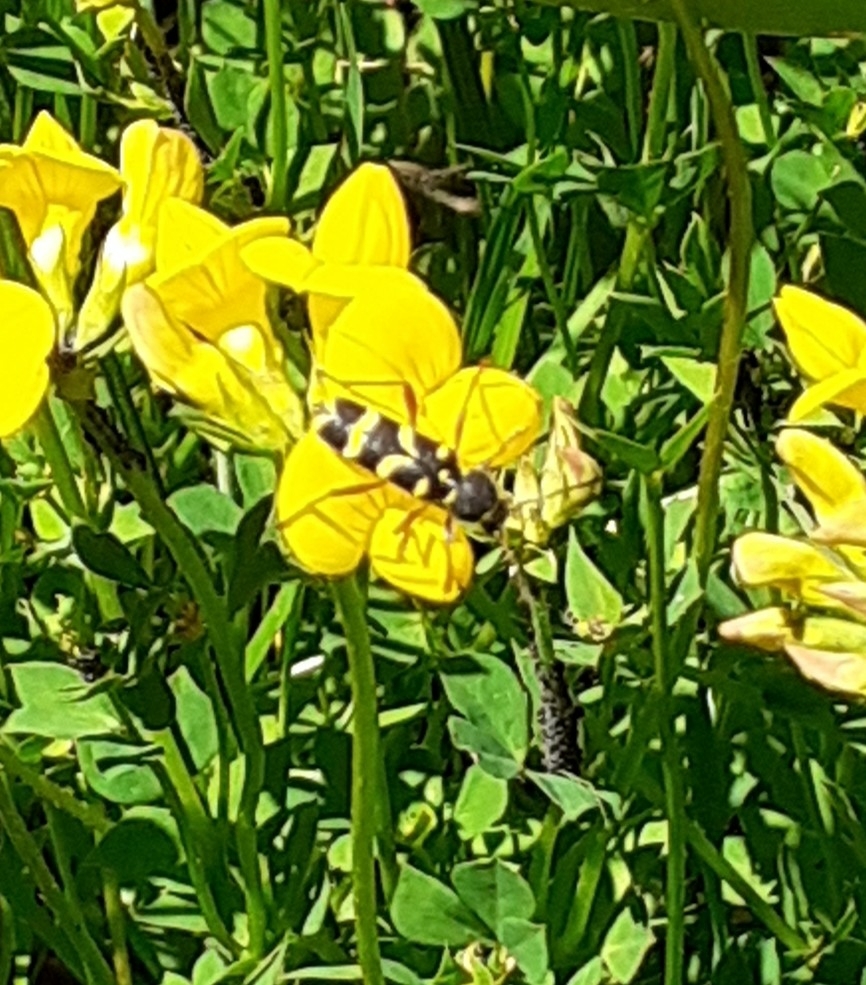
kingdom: Animalia
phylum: Arthropoda
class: Insecta
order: Coleoptera
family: Cerambycidae
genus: Clytus
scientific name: Clytus arietis
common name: Wasp beetle
